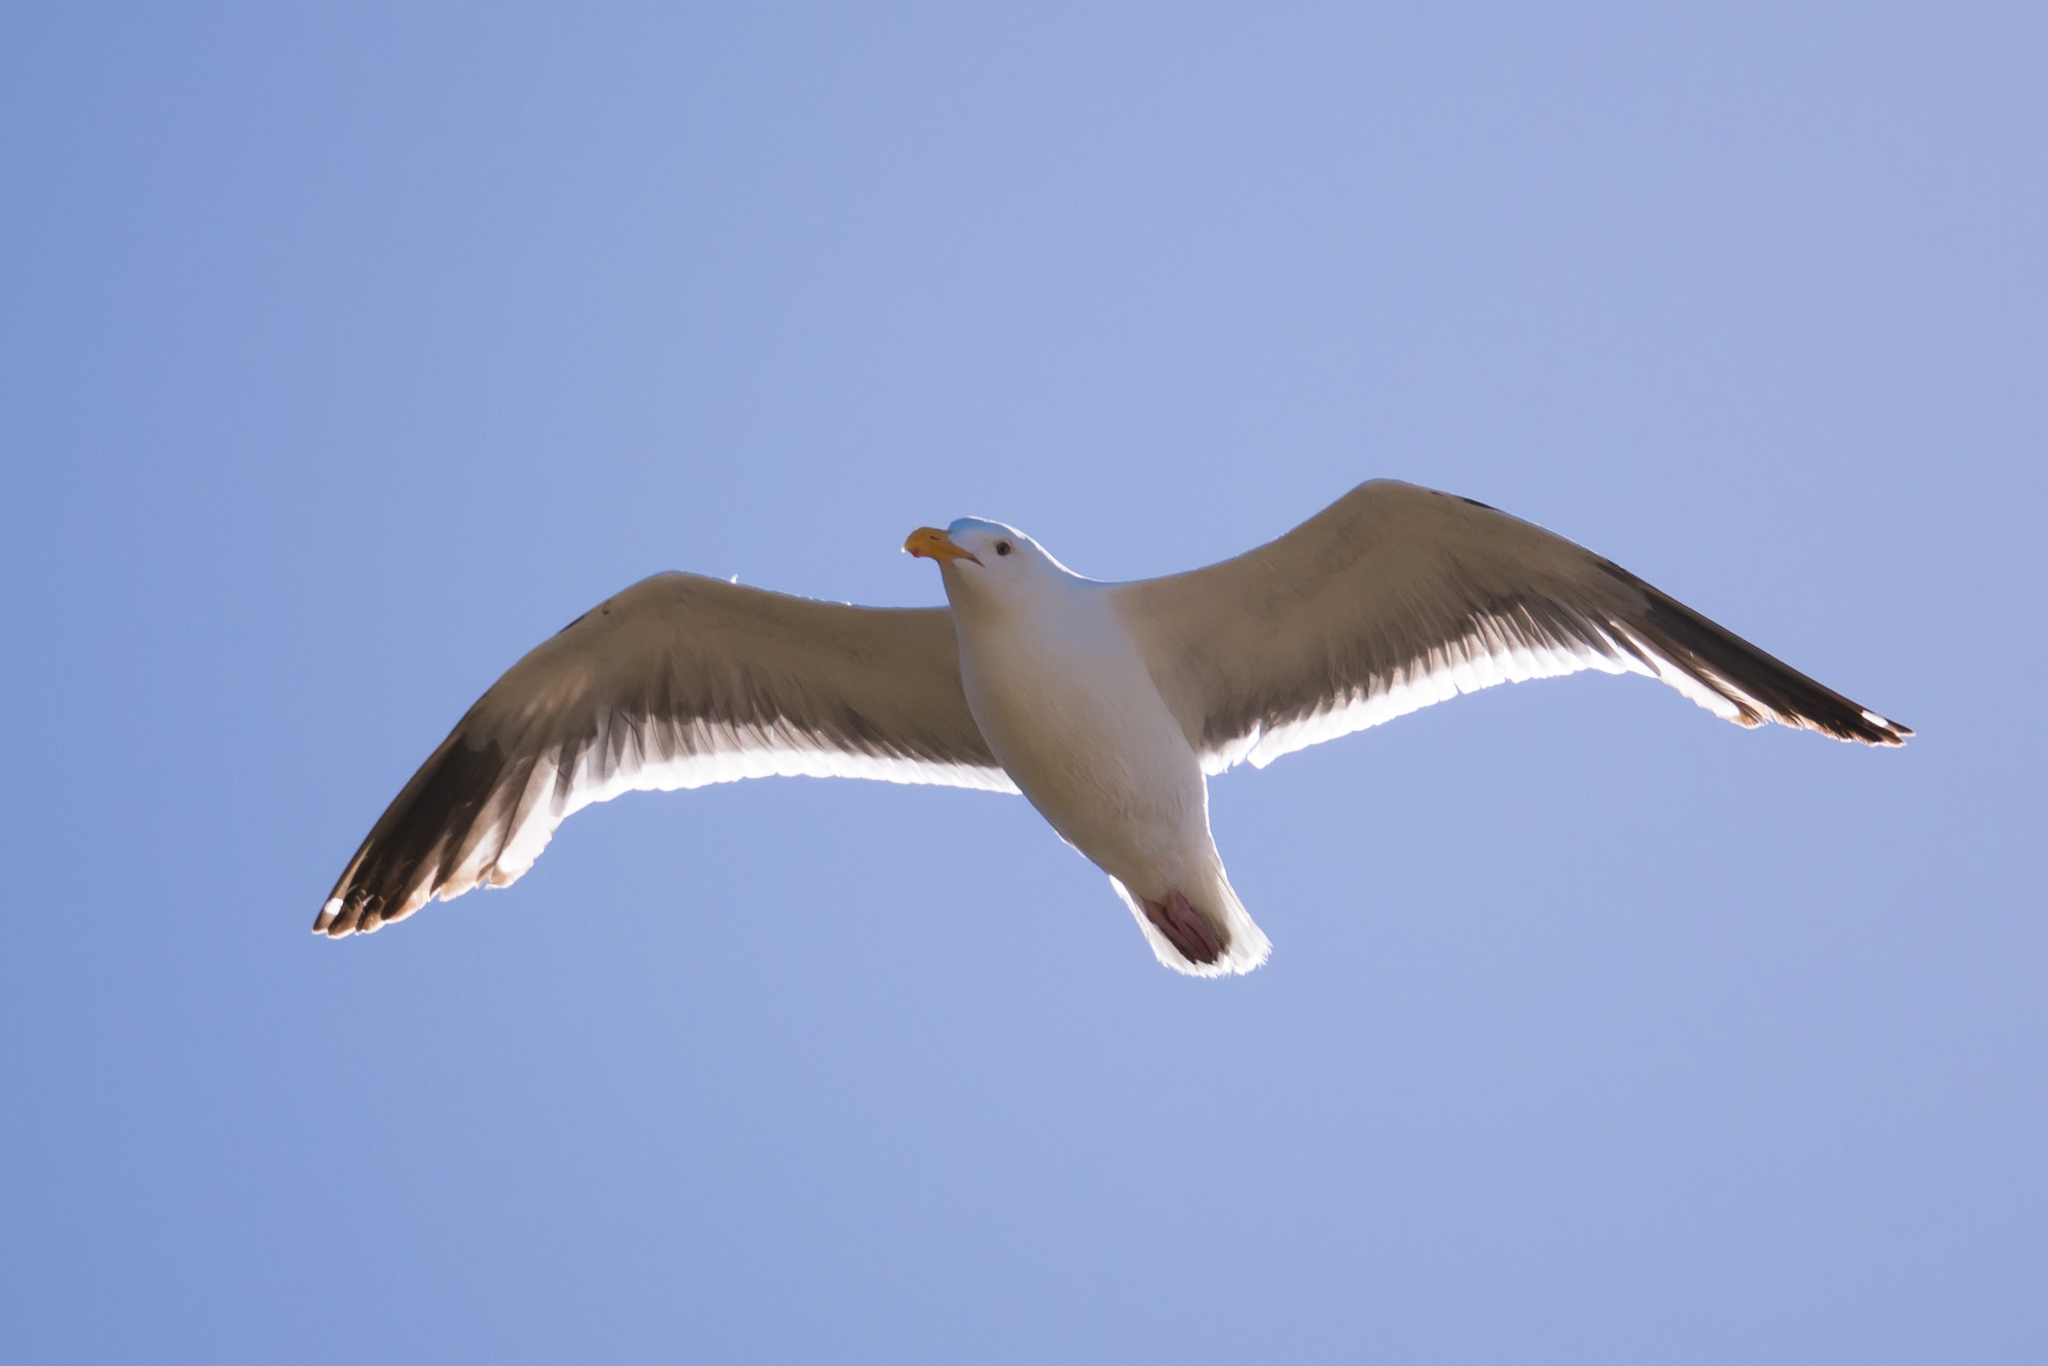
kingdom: Animalia
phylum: Chordata
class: Aves
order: Charadriiformes
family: Laridae
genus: Larus
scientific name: Larus occidentalis
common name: Western gull
